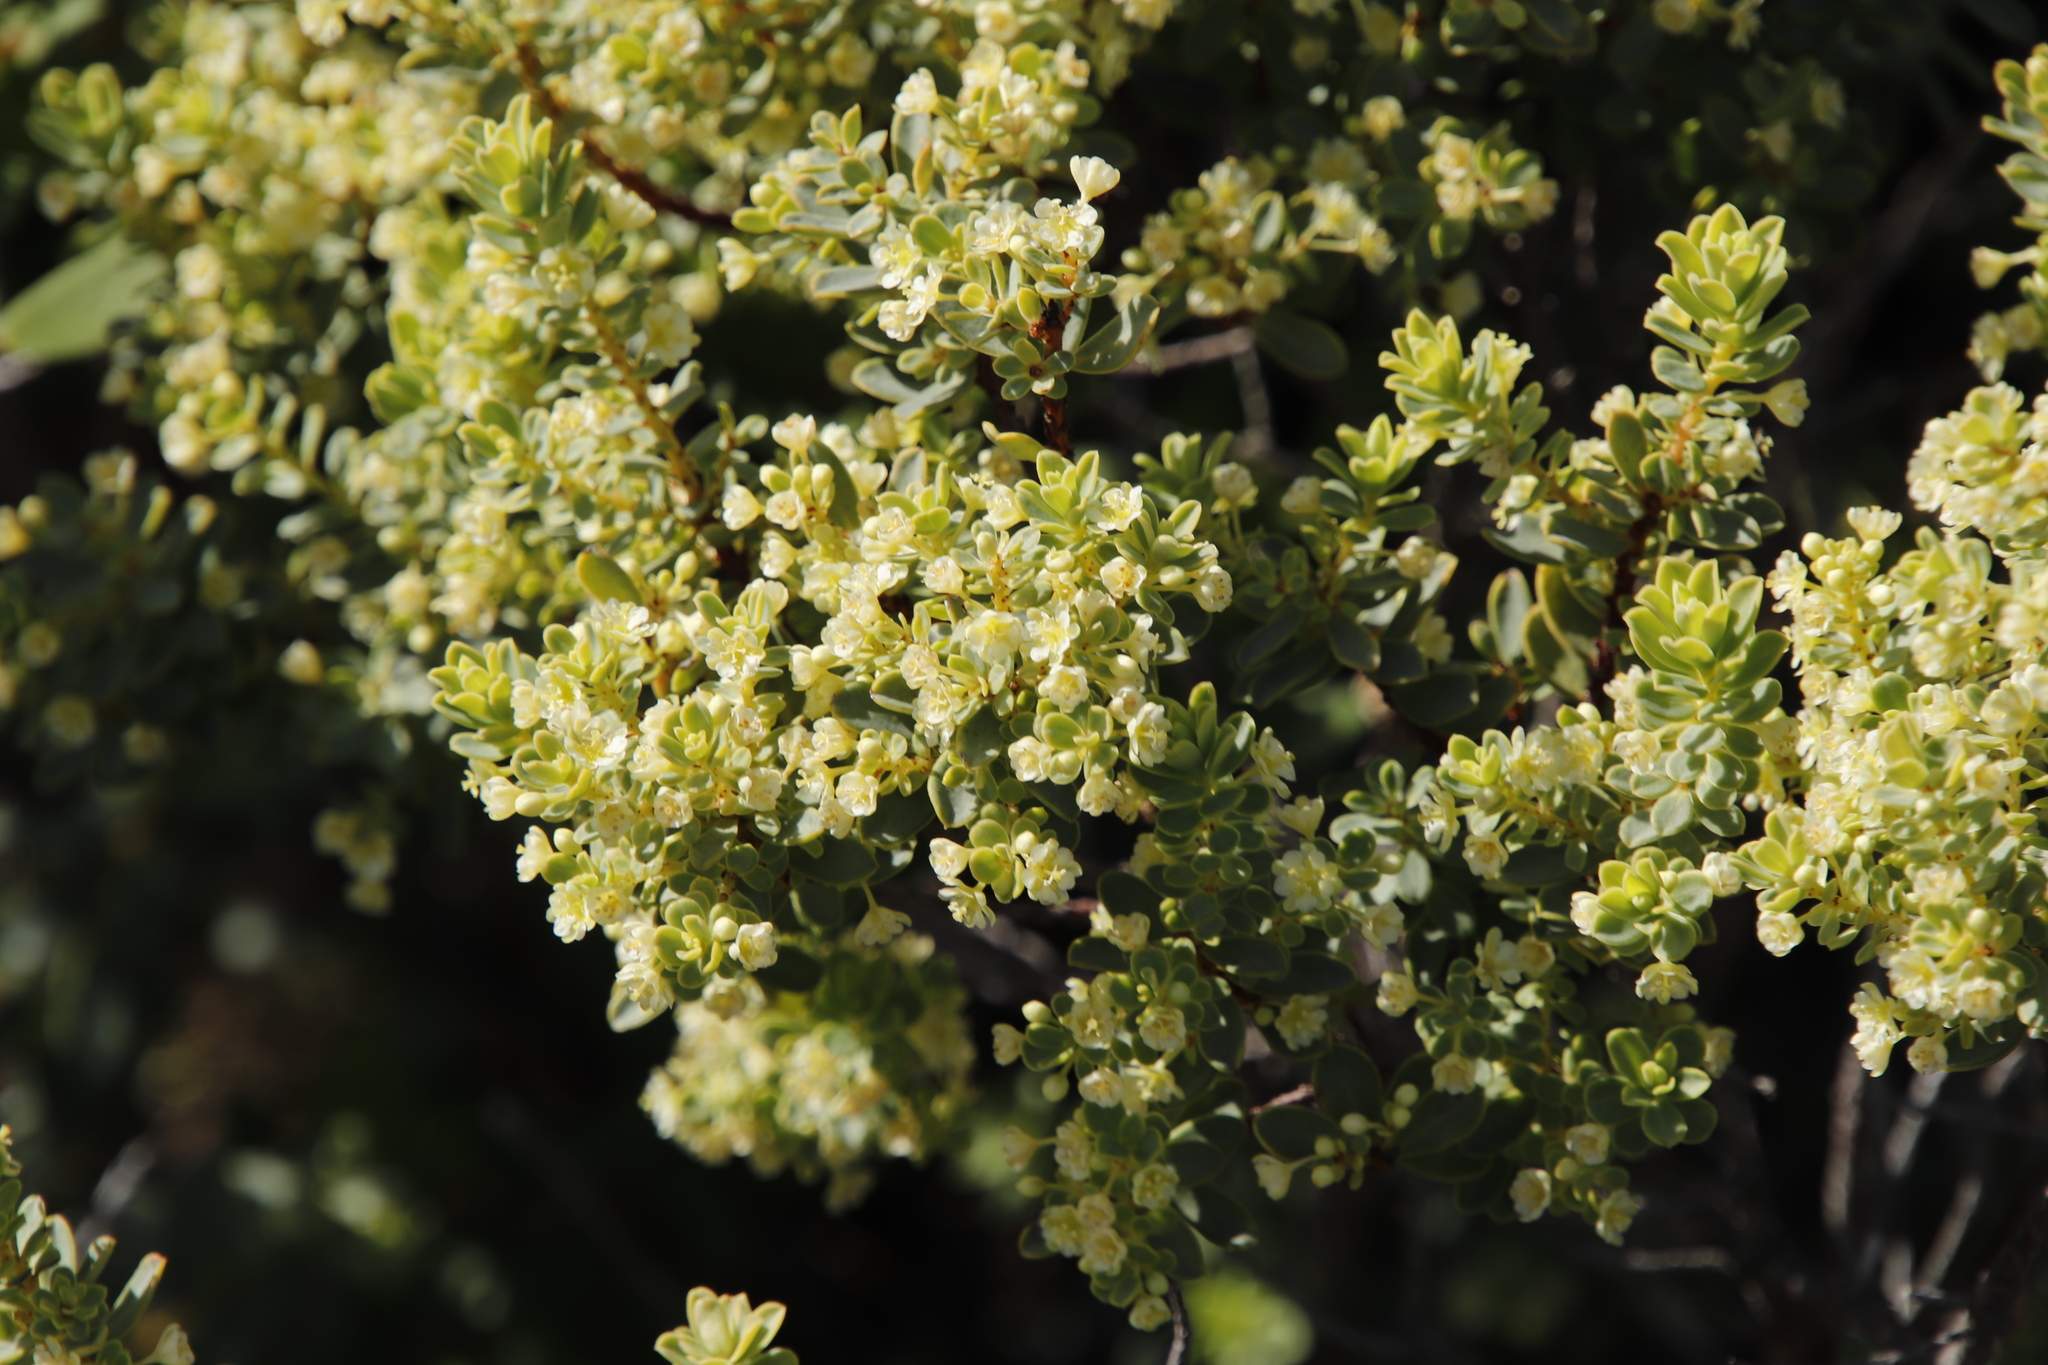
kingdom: Plantae
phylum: Tracheophyta
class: Magnoliopsida
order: Rosales
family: Rhamnaceae
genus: Phylica
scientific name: Phylica buxifolia
